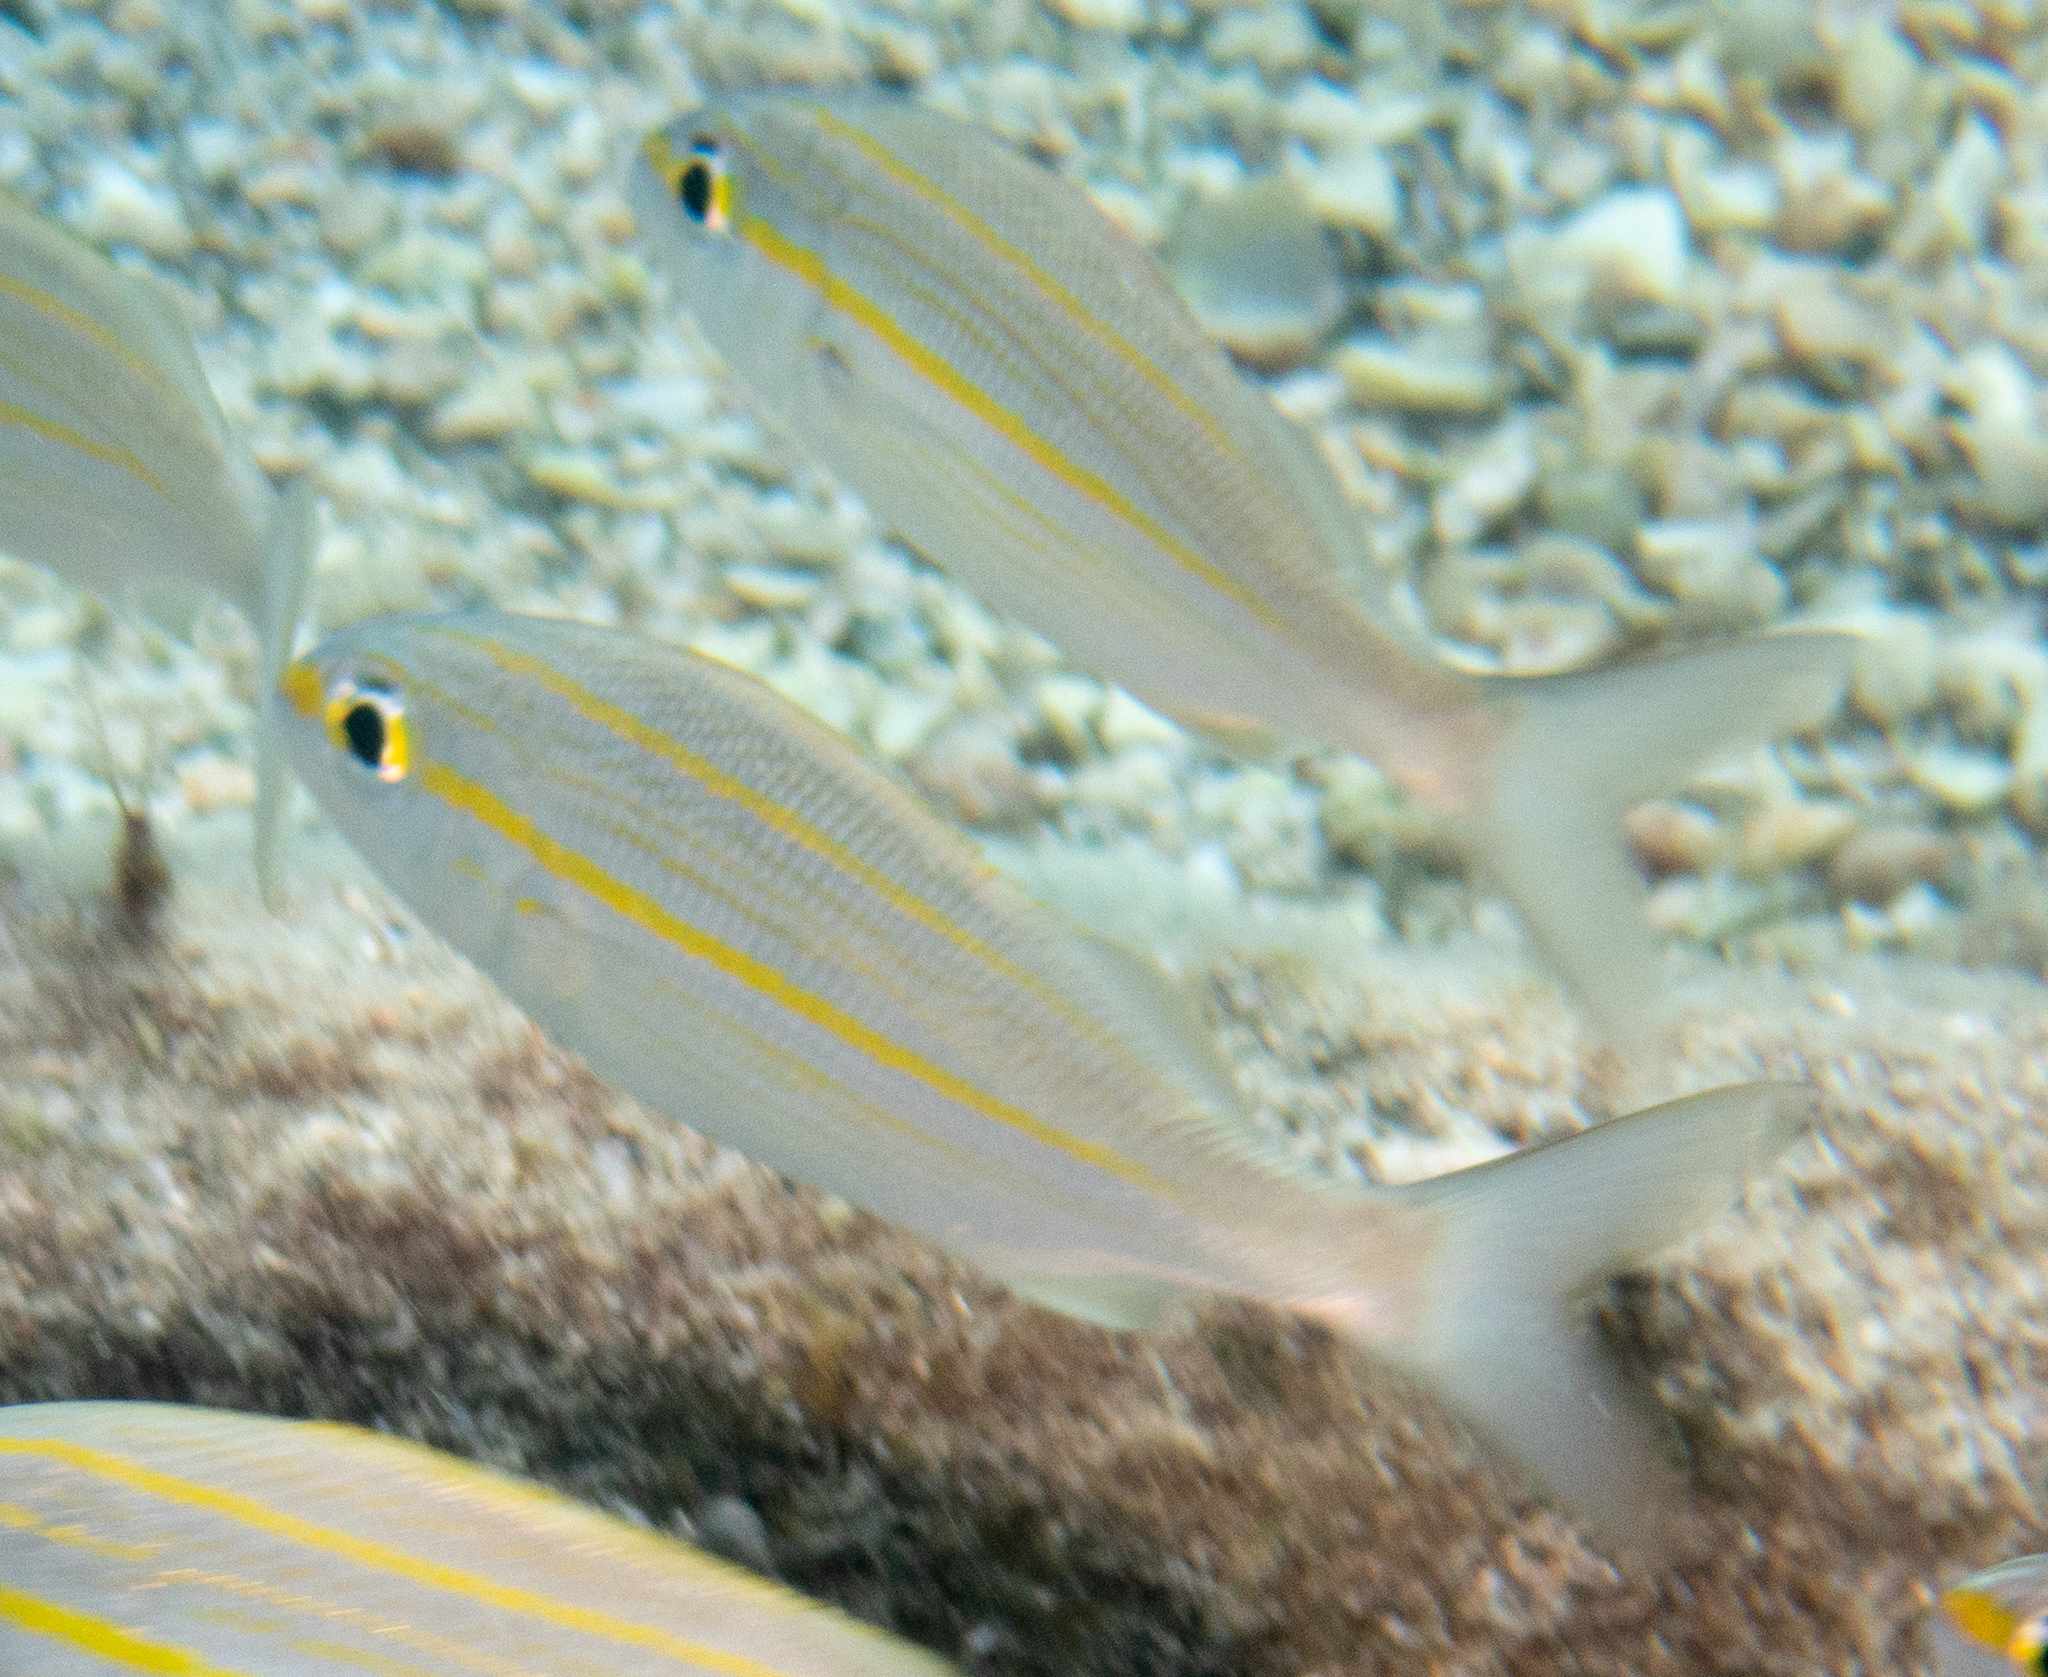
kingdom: Animalia
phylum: Chordata
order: Perciformes
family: Haemulidae
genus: Haemulon
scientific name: Haemulon aurolineatum
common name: Tomtate
